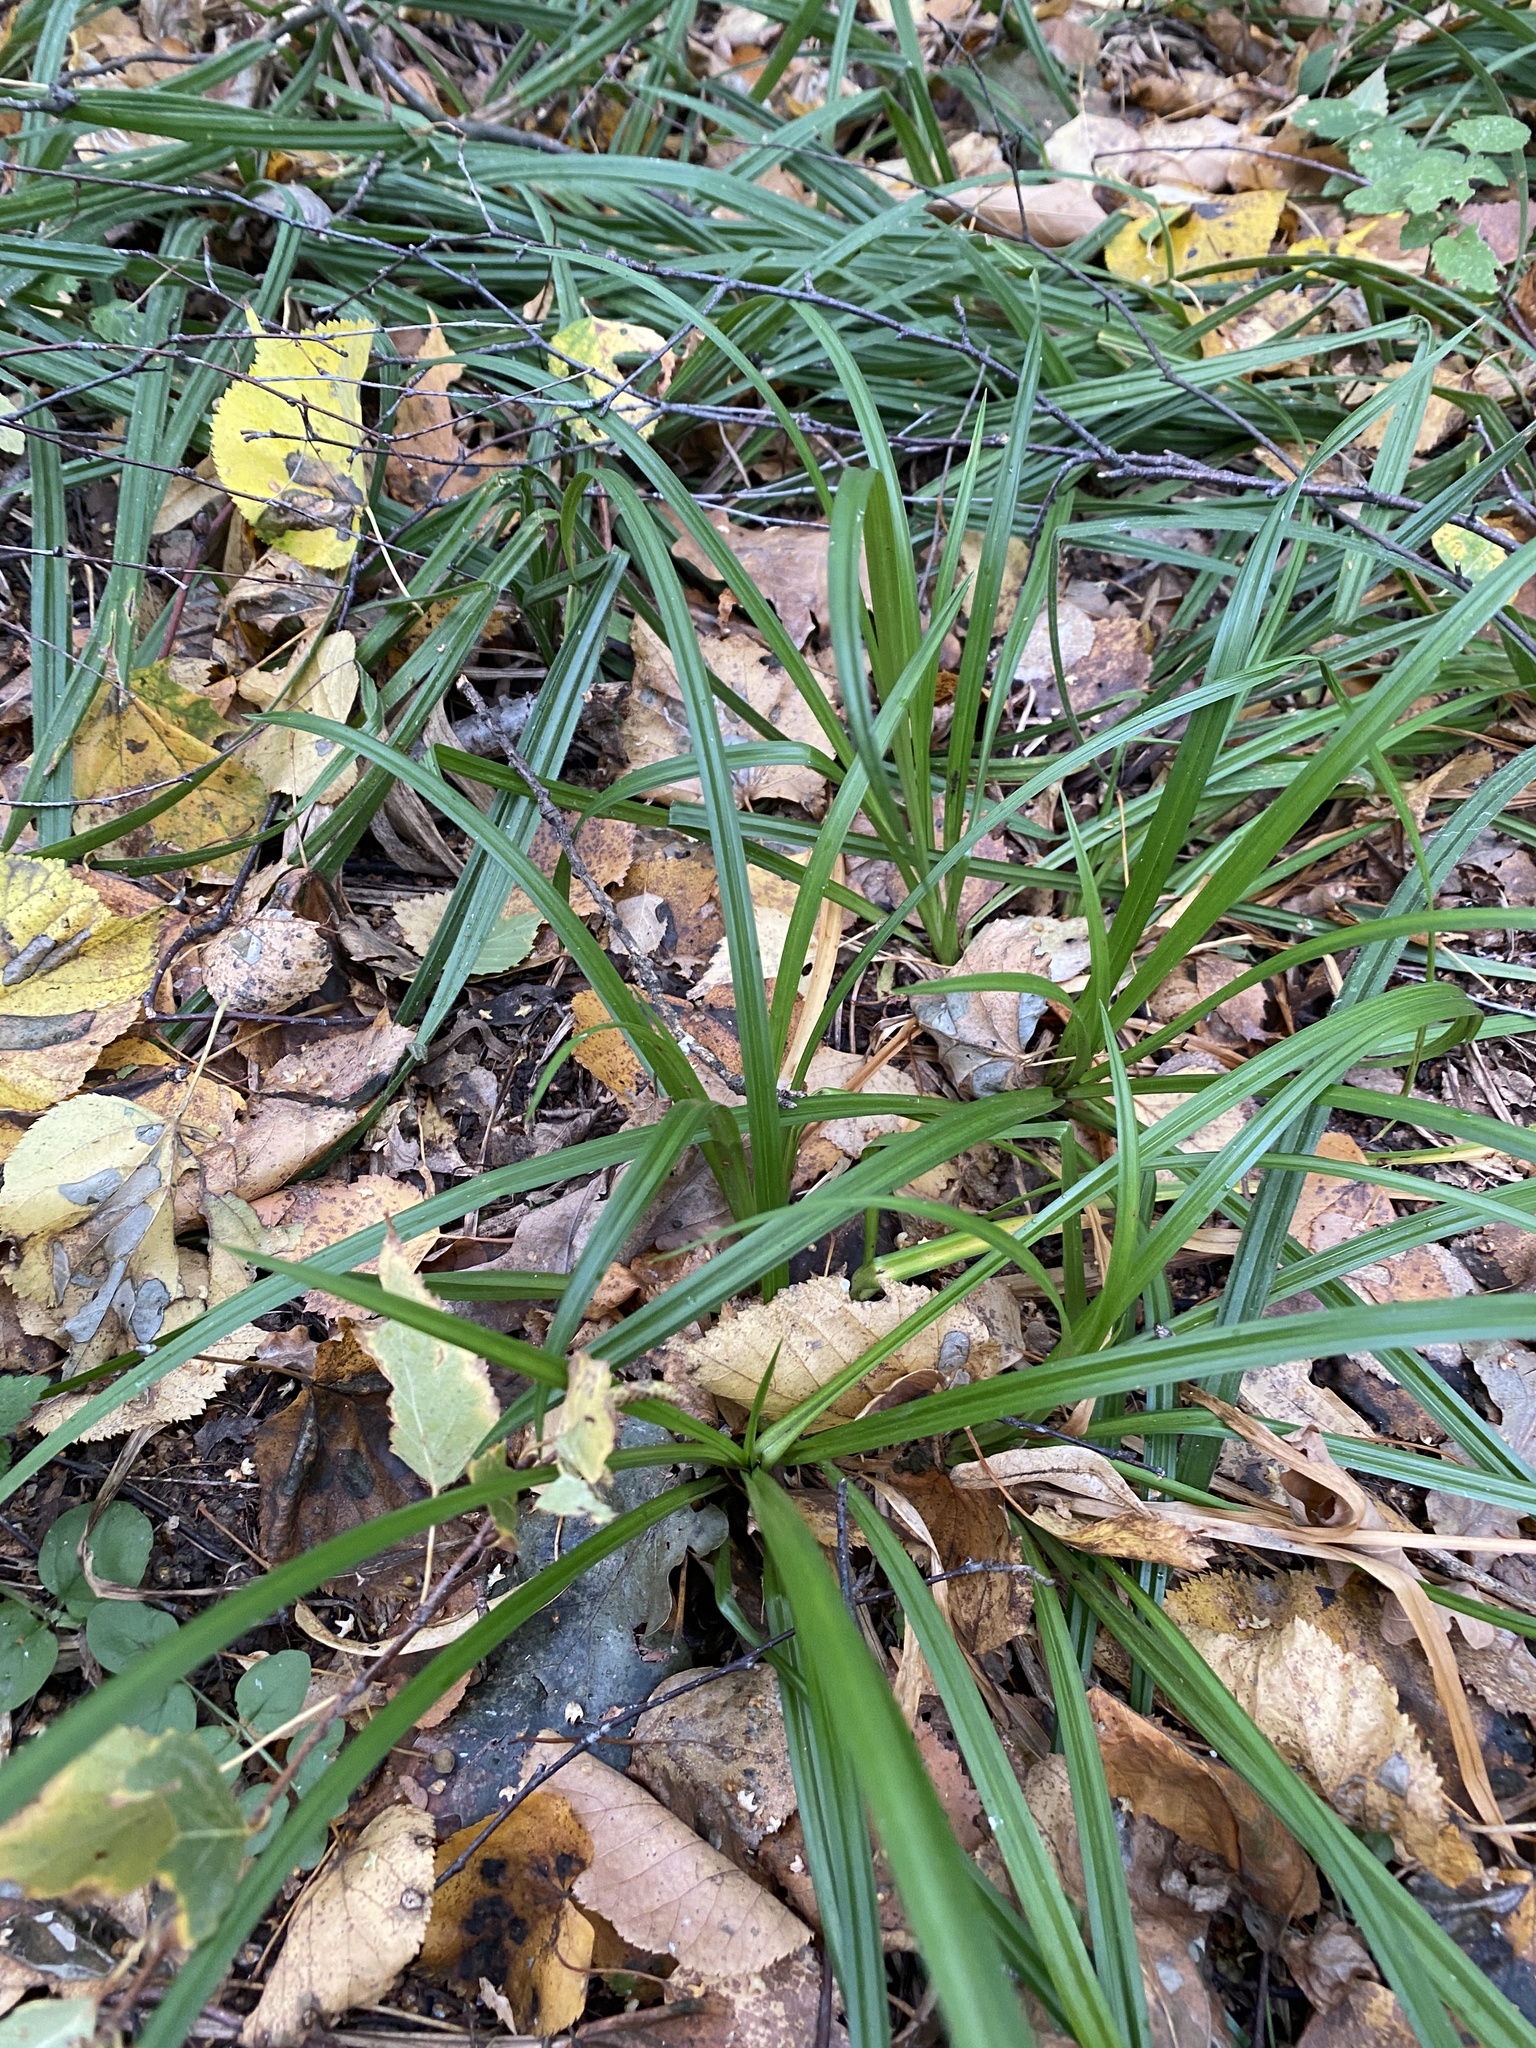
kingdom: Plantae
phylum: Tracheophyta
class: Liliopsida
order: Poales
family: Cyperaceae
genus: Carex
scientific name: Carex sylvatica
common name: Wood-sedge
